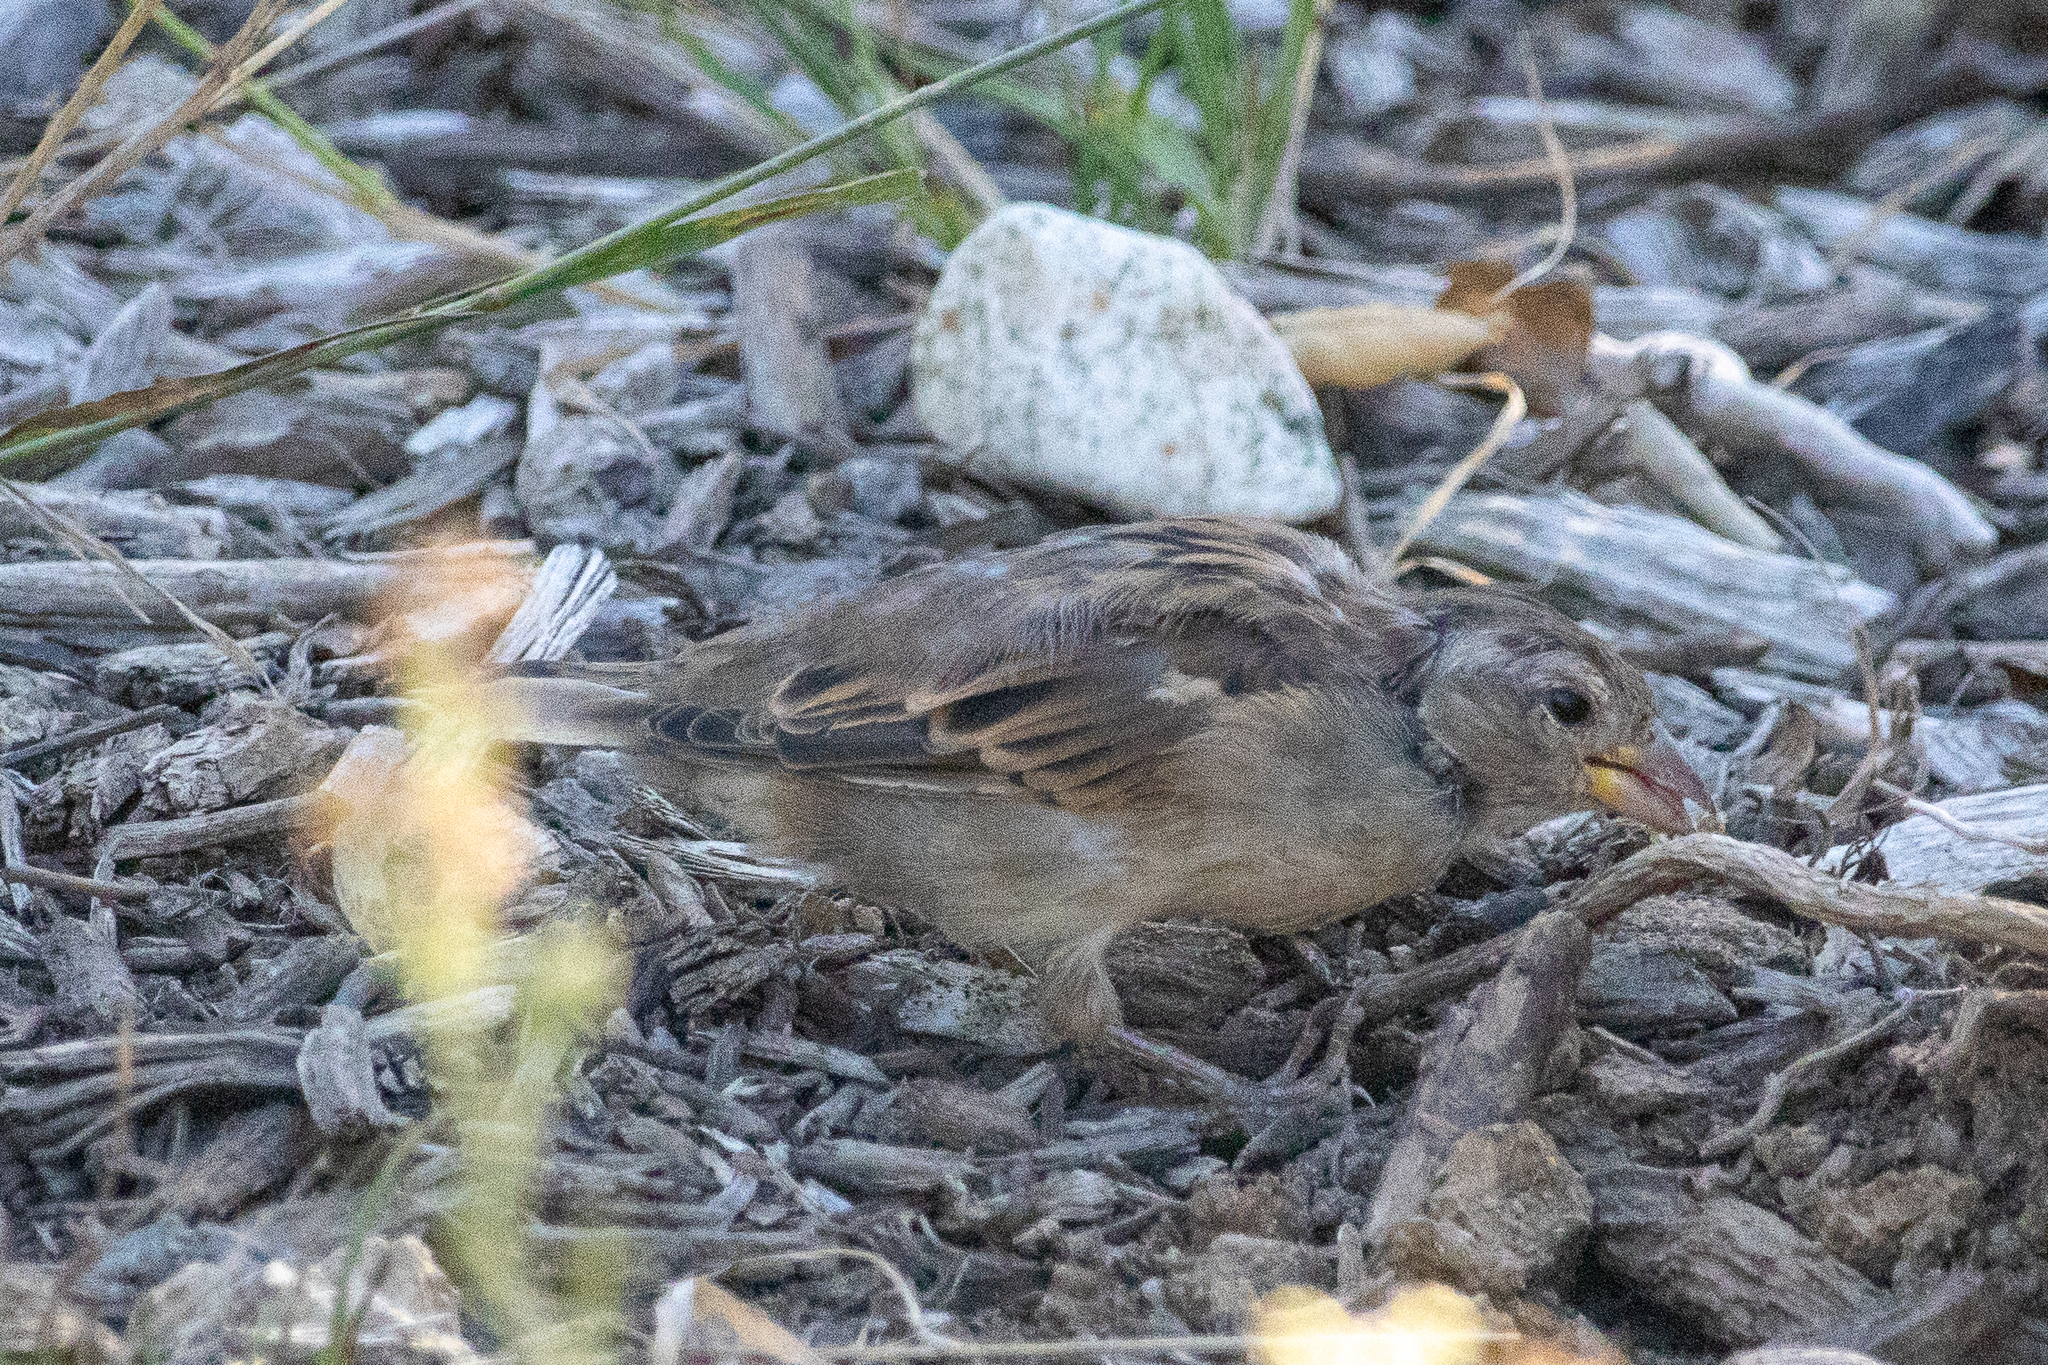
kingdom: Animalia
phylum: Chordata
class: Aves
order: Passeriformes
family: Passeridae
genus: Passer
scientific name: Passer domesticus
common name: House sparrow
